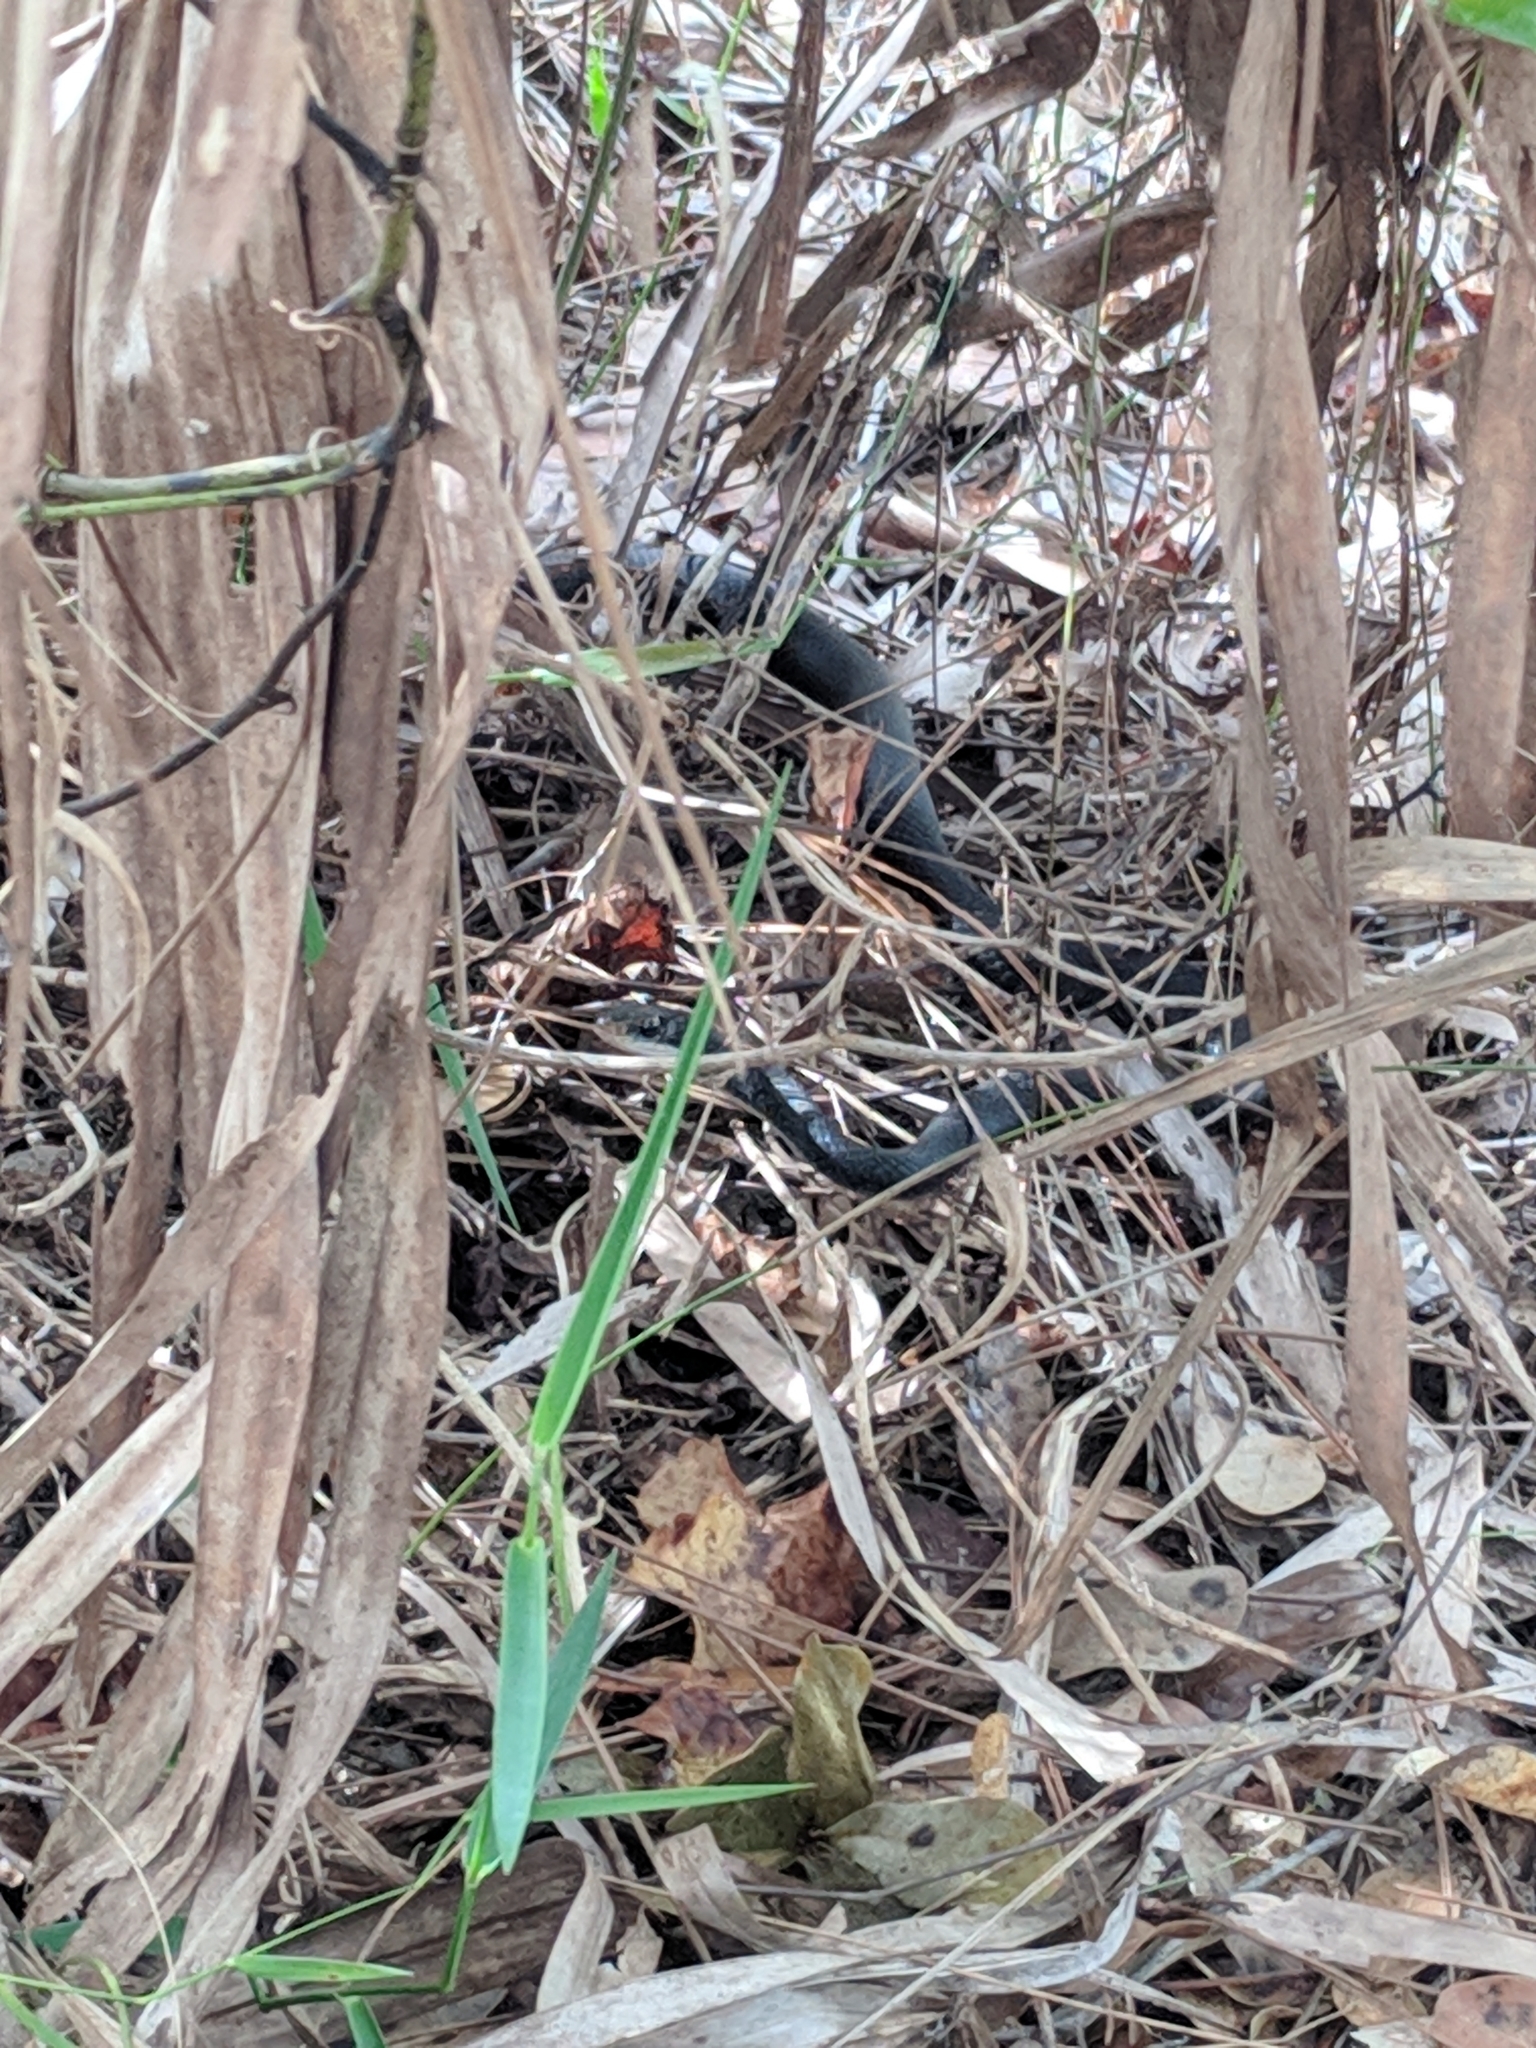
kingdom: Animalia
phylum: Chordata
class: Squamata
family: Colubridae
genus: Coluber
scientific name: Coluber constrictor
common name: Eastern racer
